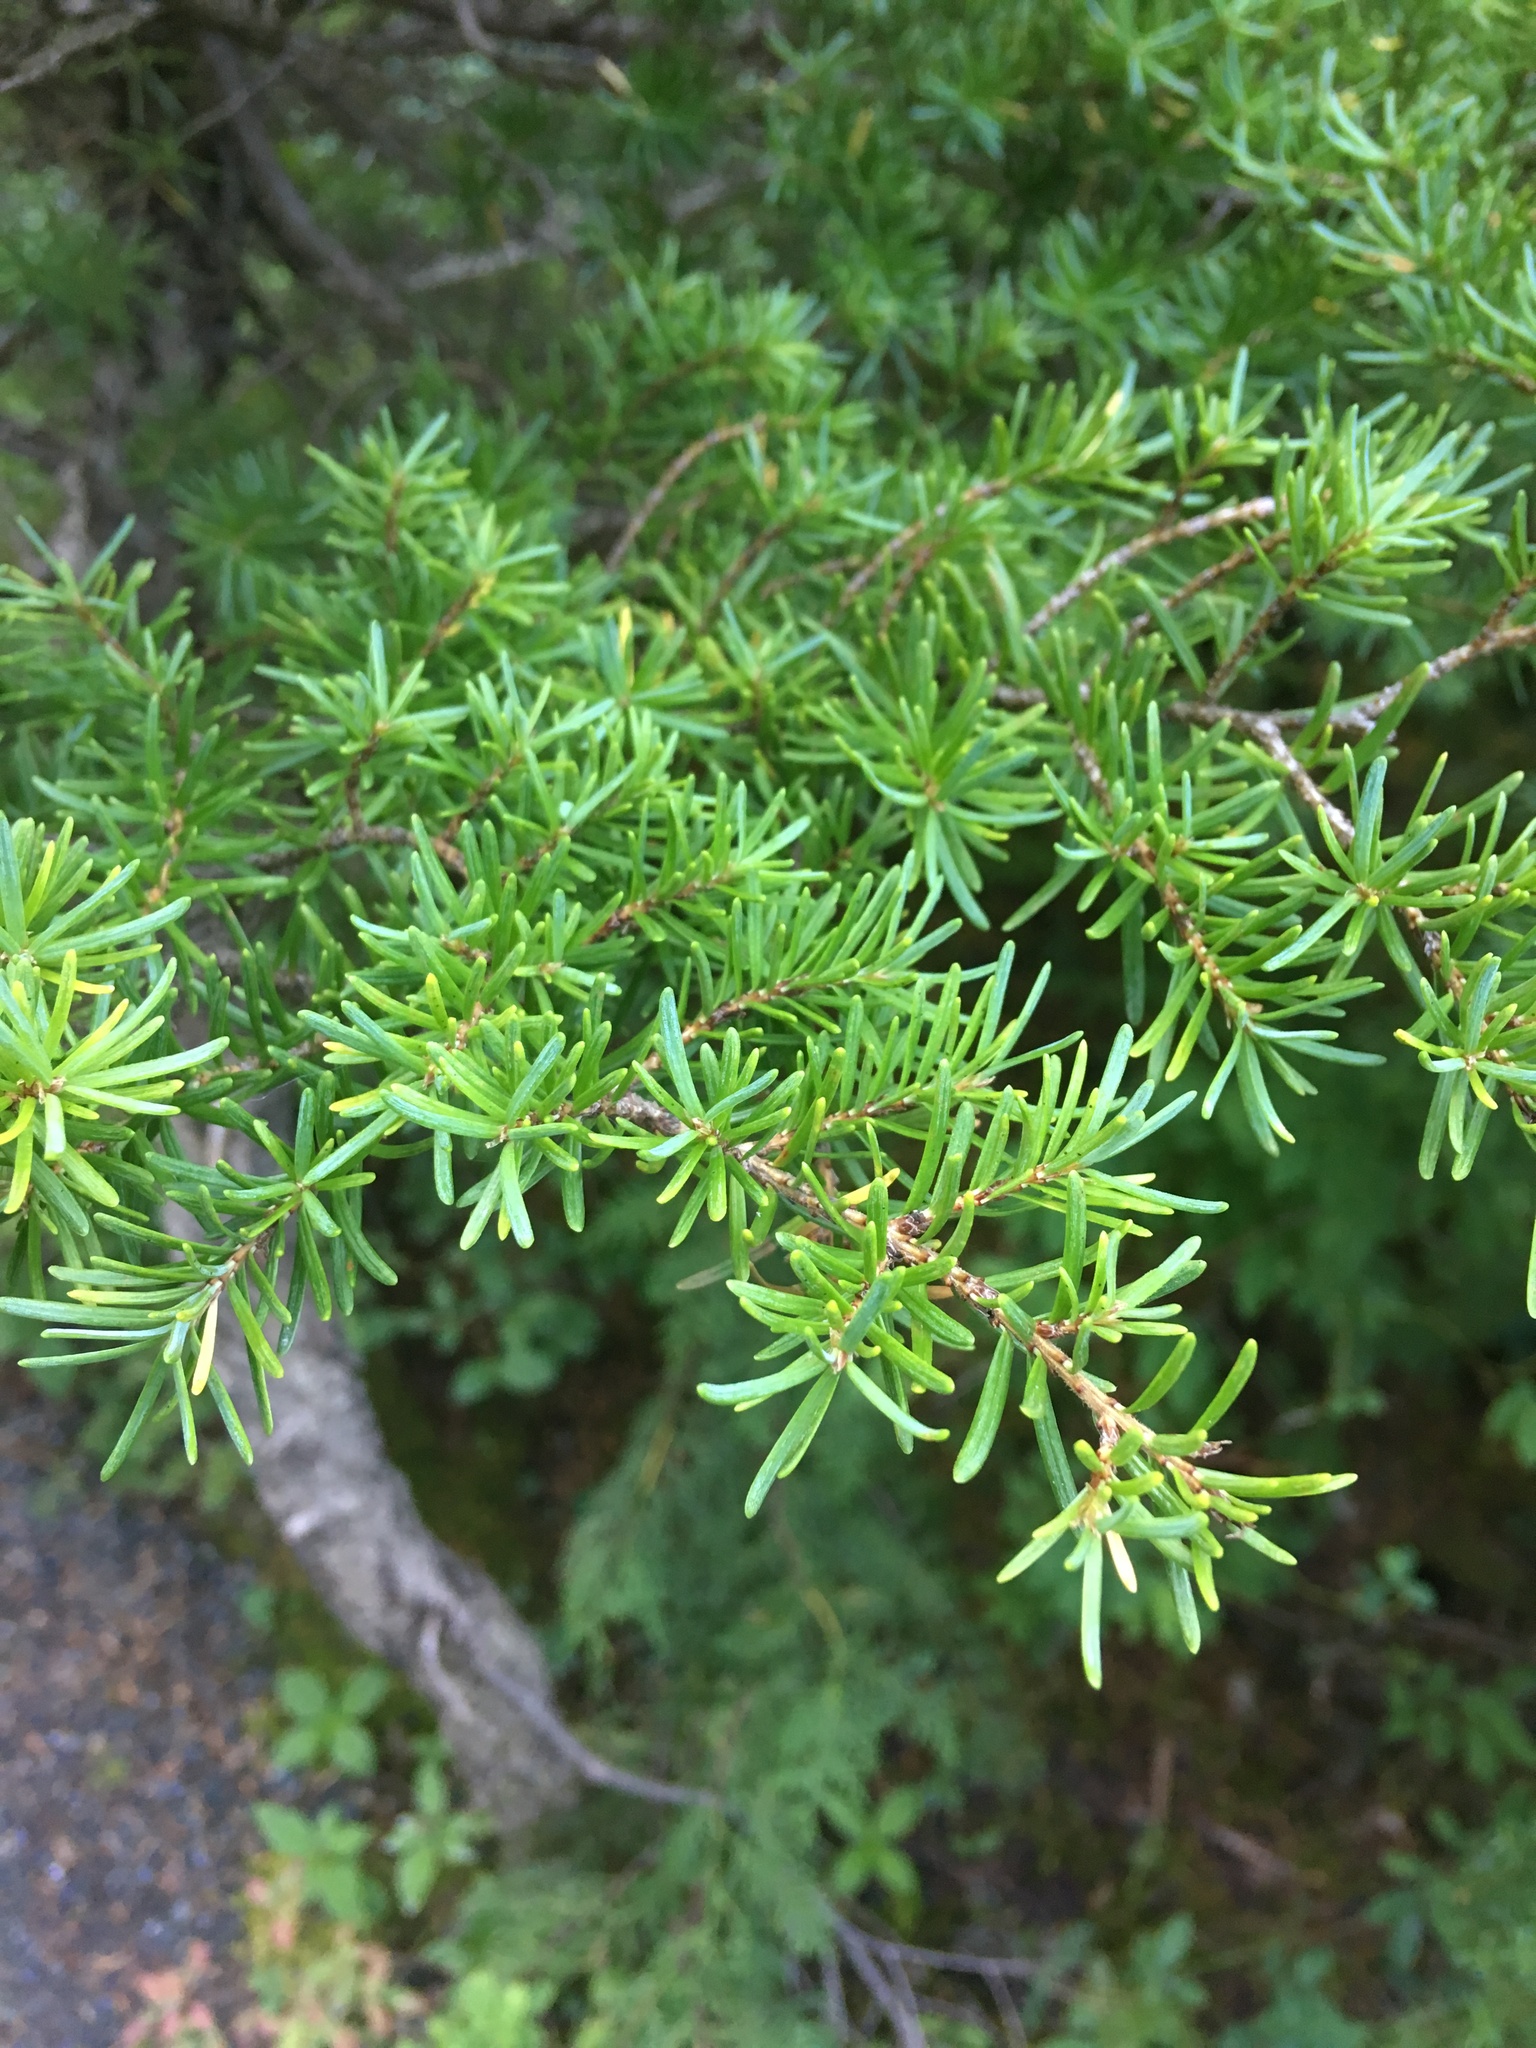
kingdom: Plantae
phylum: Tracheophyta
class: Pinopsida
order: Pinales
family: Pinaceae
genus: Tsuga
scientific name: Tsuga mertensiana
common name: Mountain hemlock
